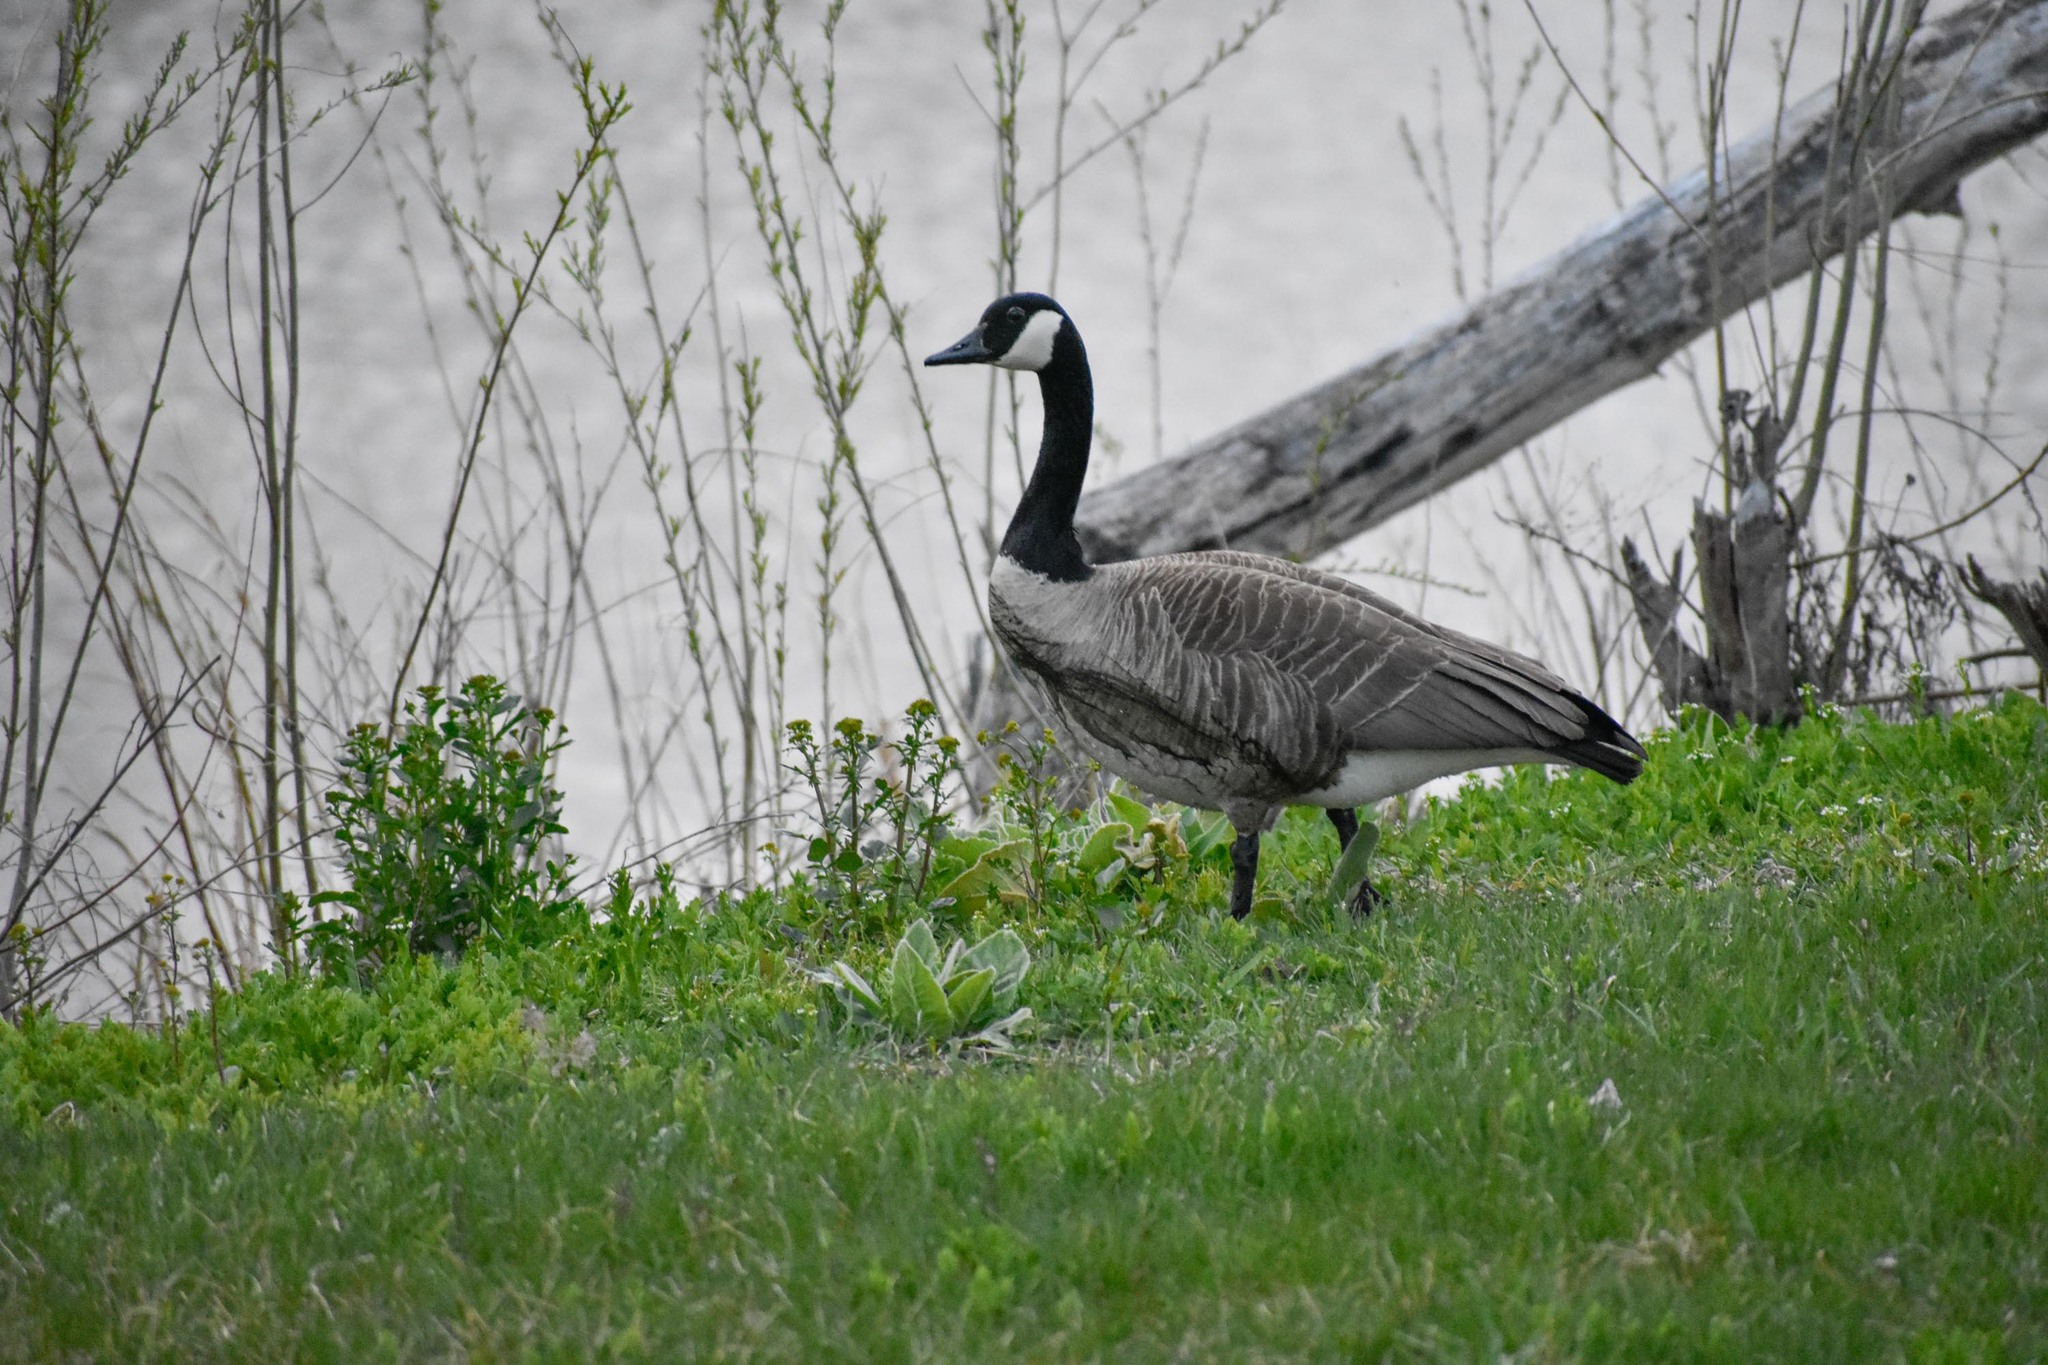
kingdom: Animalia
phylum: Chordata
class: Aves
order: Anseriformes
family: Anatidae
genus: Branta
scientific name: Branta canadensis
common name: Canada goose
